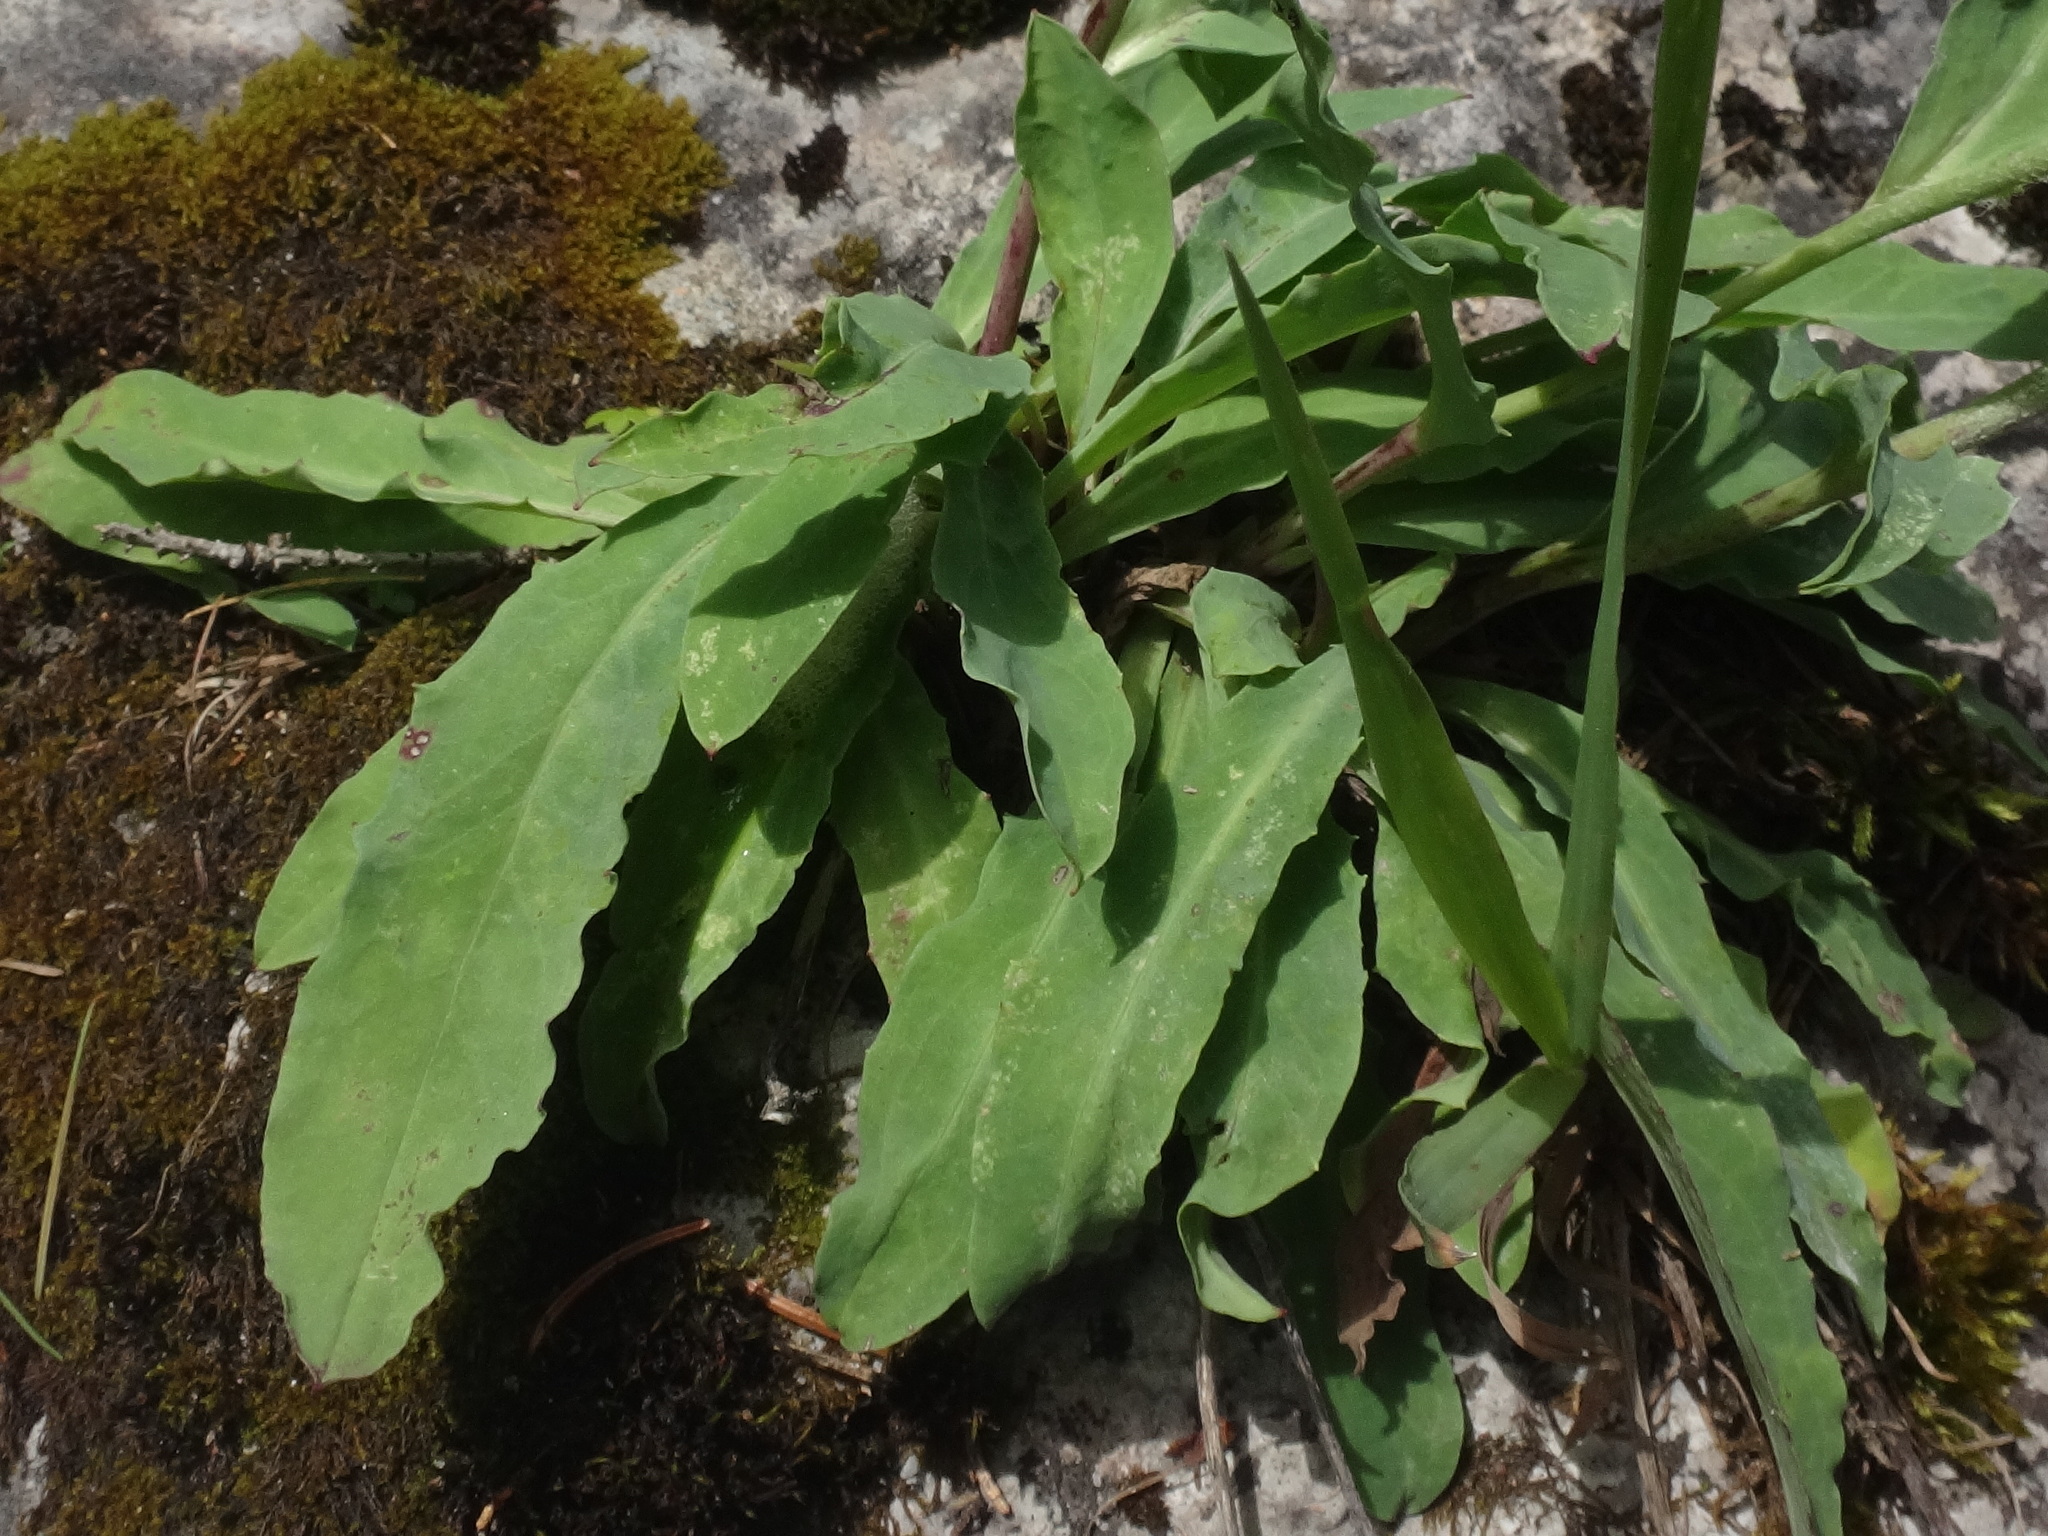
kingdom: Plantae
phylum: Tracheophyta
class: Magnoliopsida
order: Asterales
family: Asteraceae
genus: Hieracium
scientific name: Hieracium glabratum
